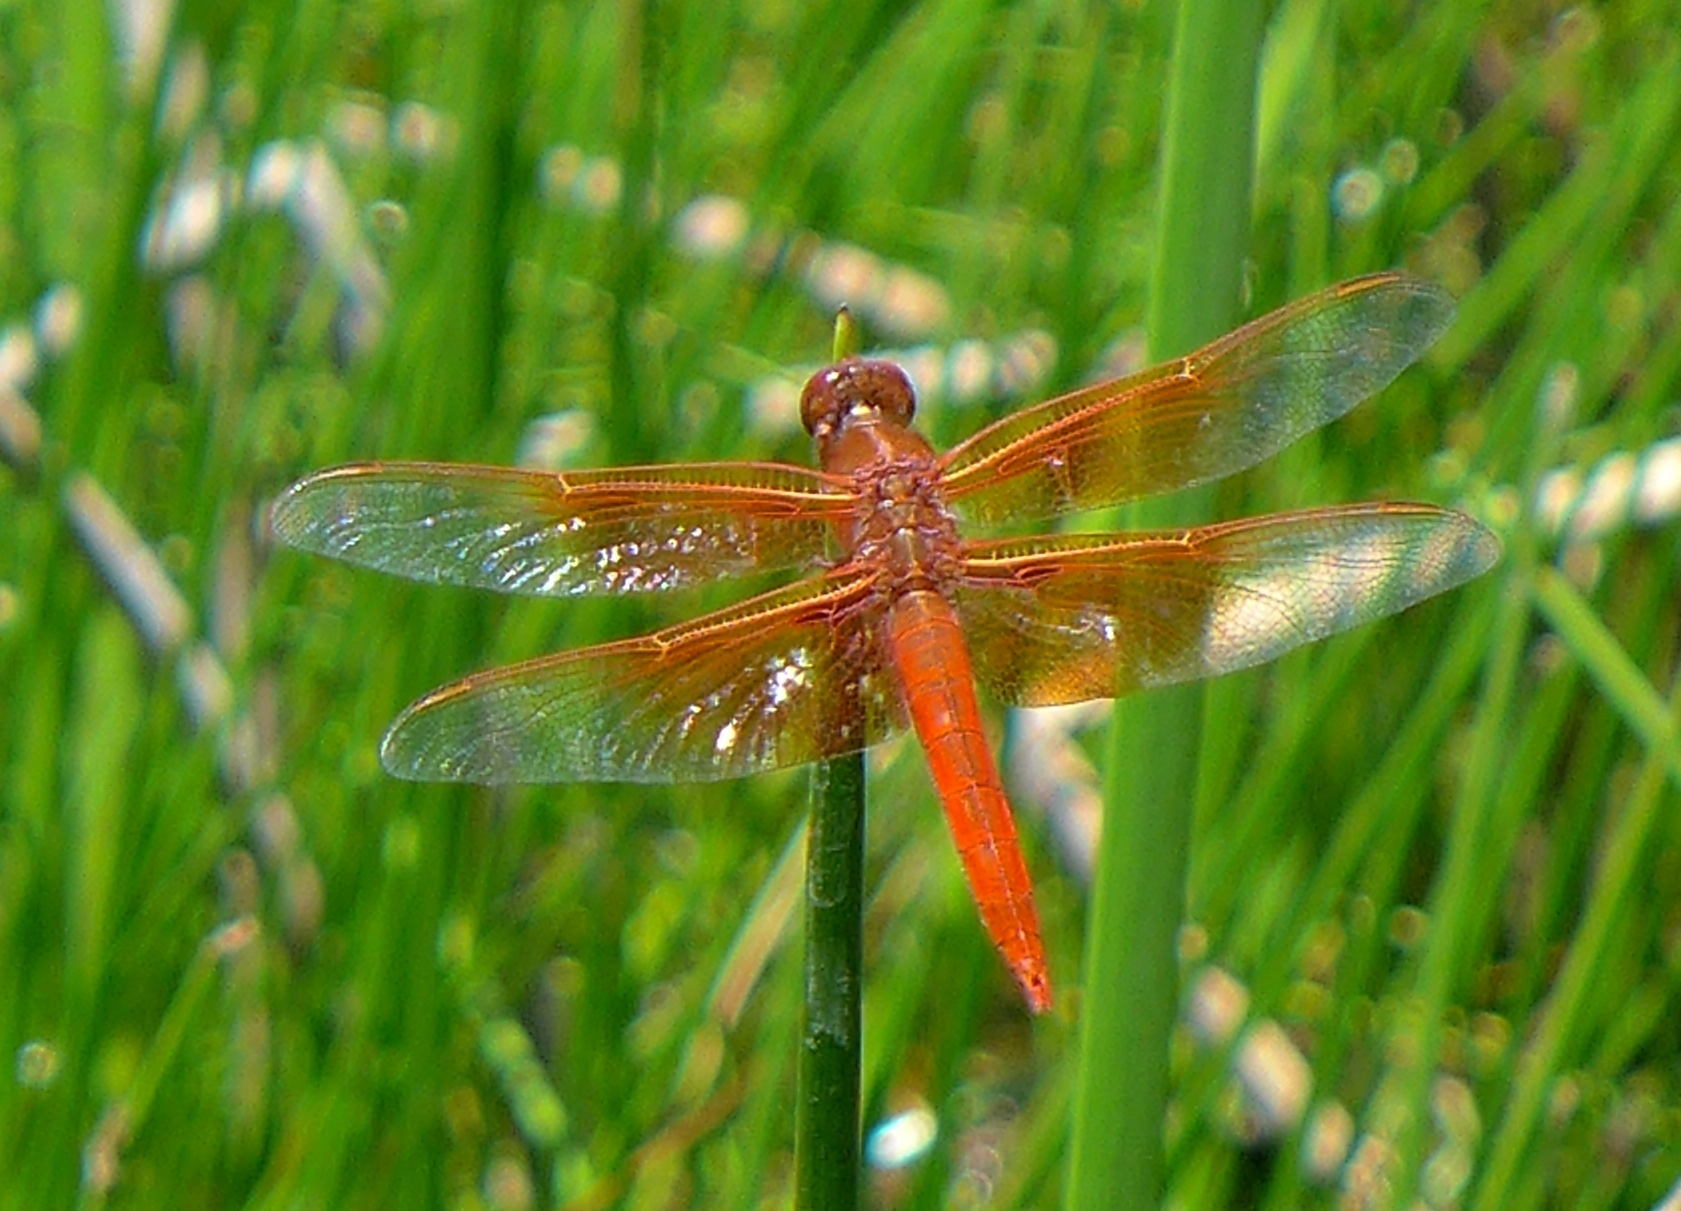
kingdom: Animalia
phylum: Arthropoda
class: Insecta
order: Odonata
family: Libellulidae
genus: Libellula
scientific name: Libellula saturata
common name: Flame skimmer
